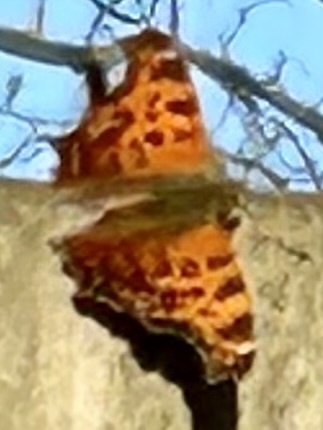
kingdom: Animalia
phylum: Arthropoda
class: Insecta
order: Lepidoptera
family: Nymphalidae
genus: Polygonia
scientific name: Polygonia comma
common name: Eastern comma
